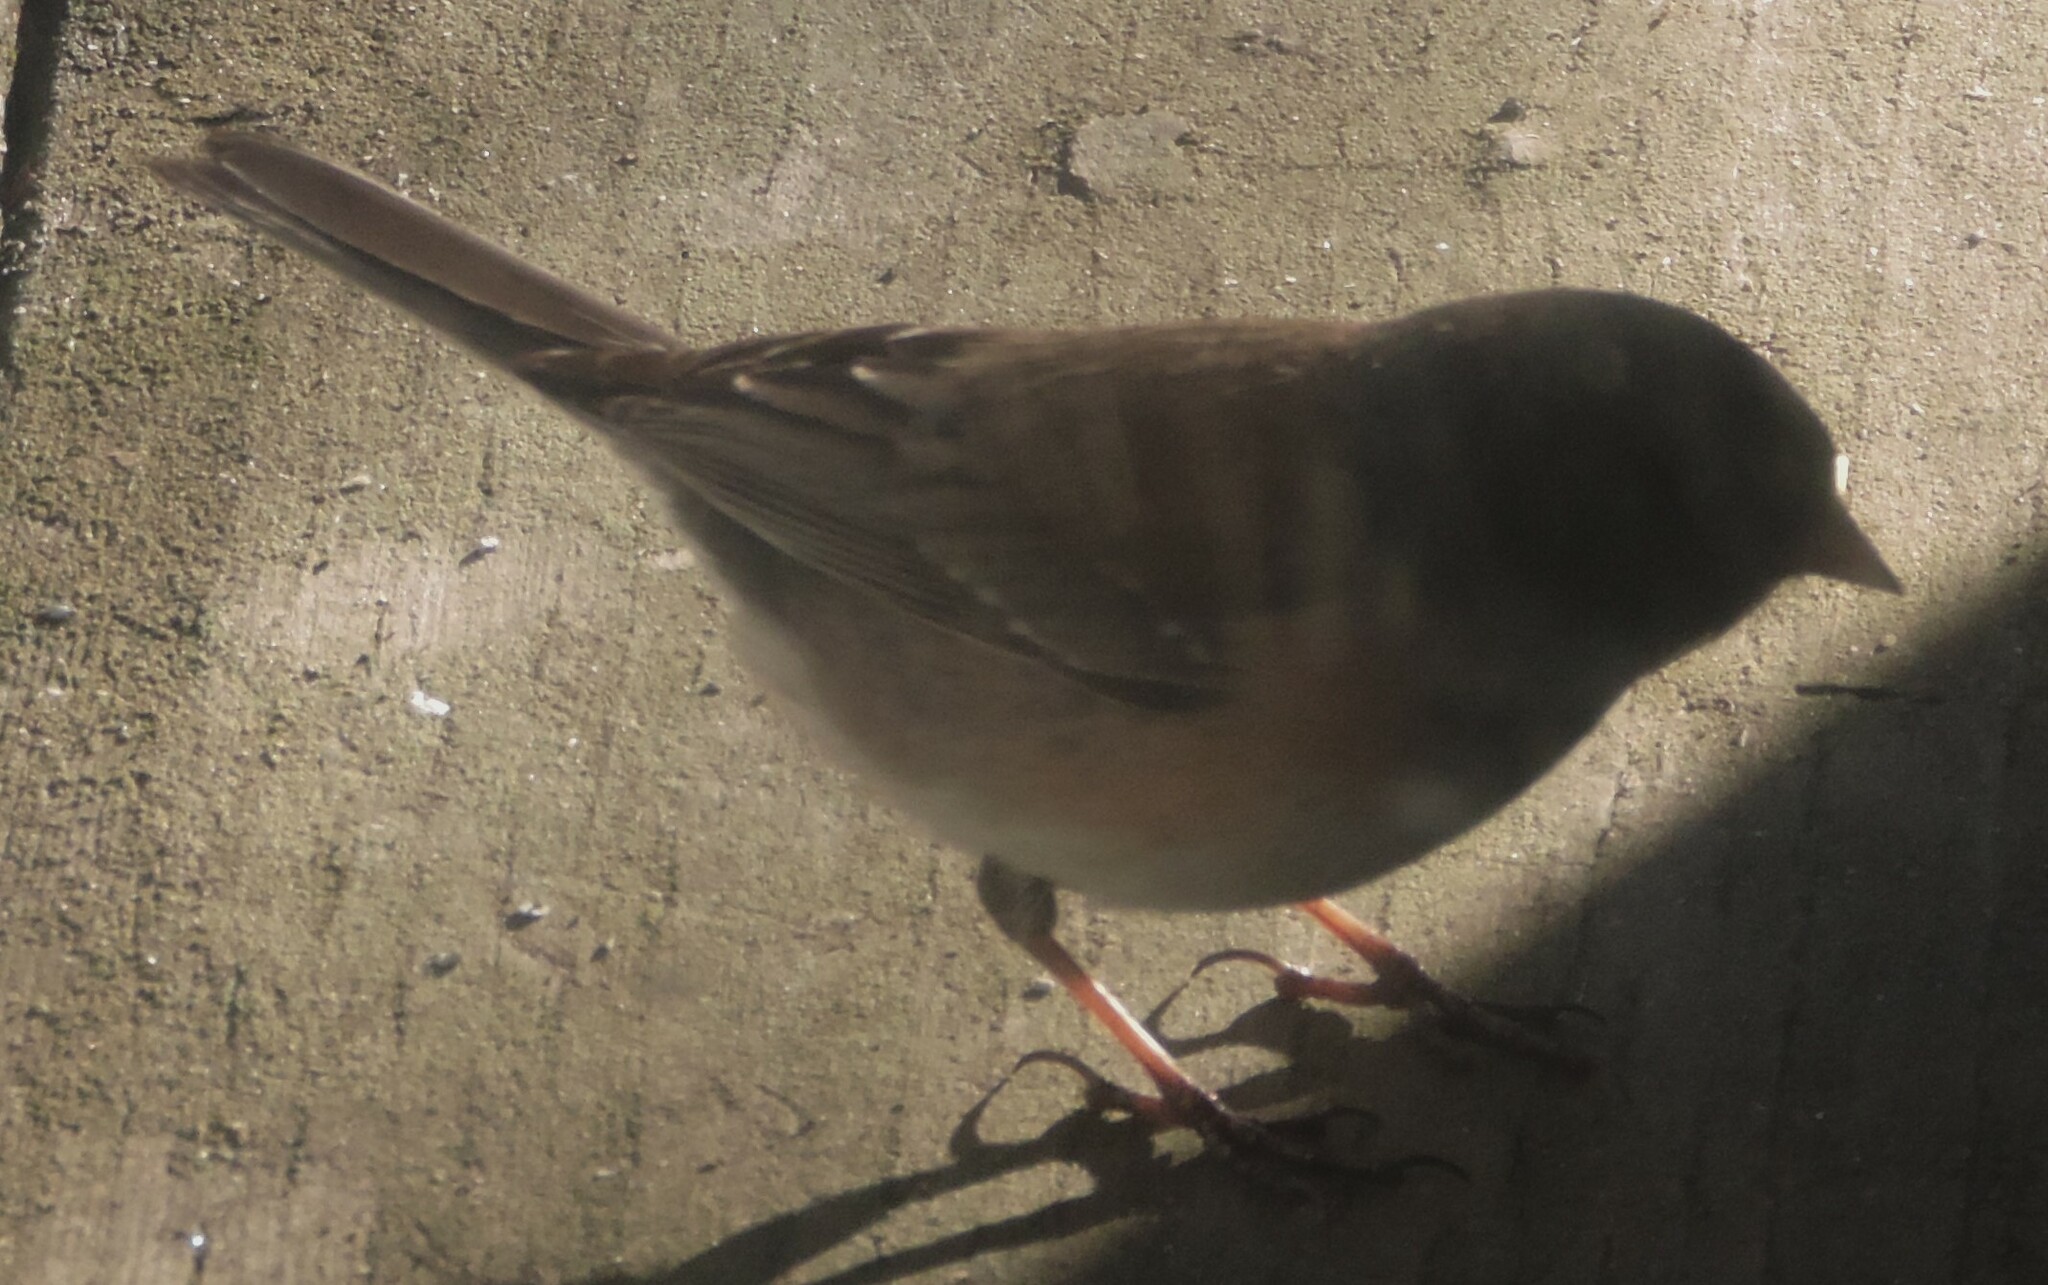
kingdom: Animalia
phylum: Chordata
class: Aves
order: Passeriformes
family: Passerellidae
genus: Junco
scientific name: Junco hyemalis
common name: Dark-eyed junco
